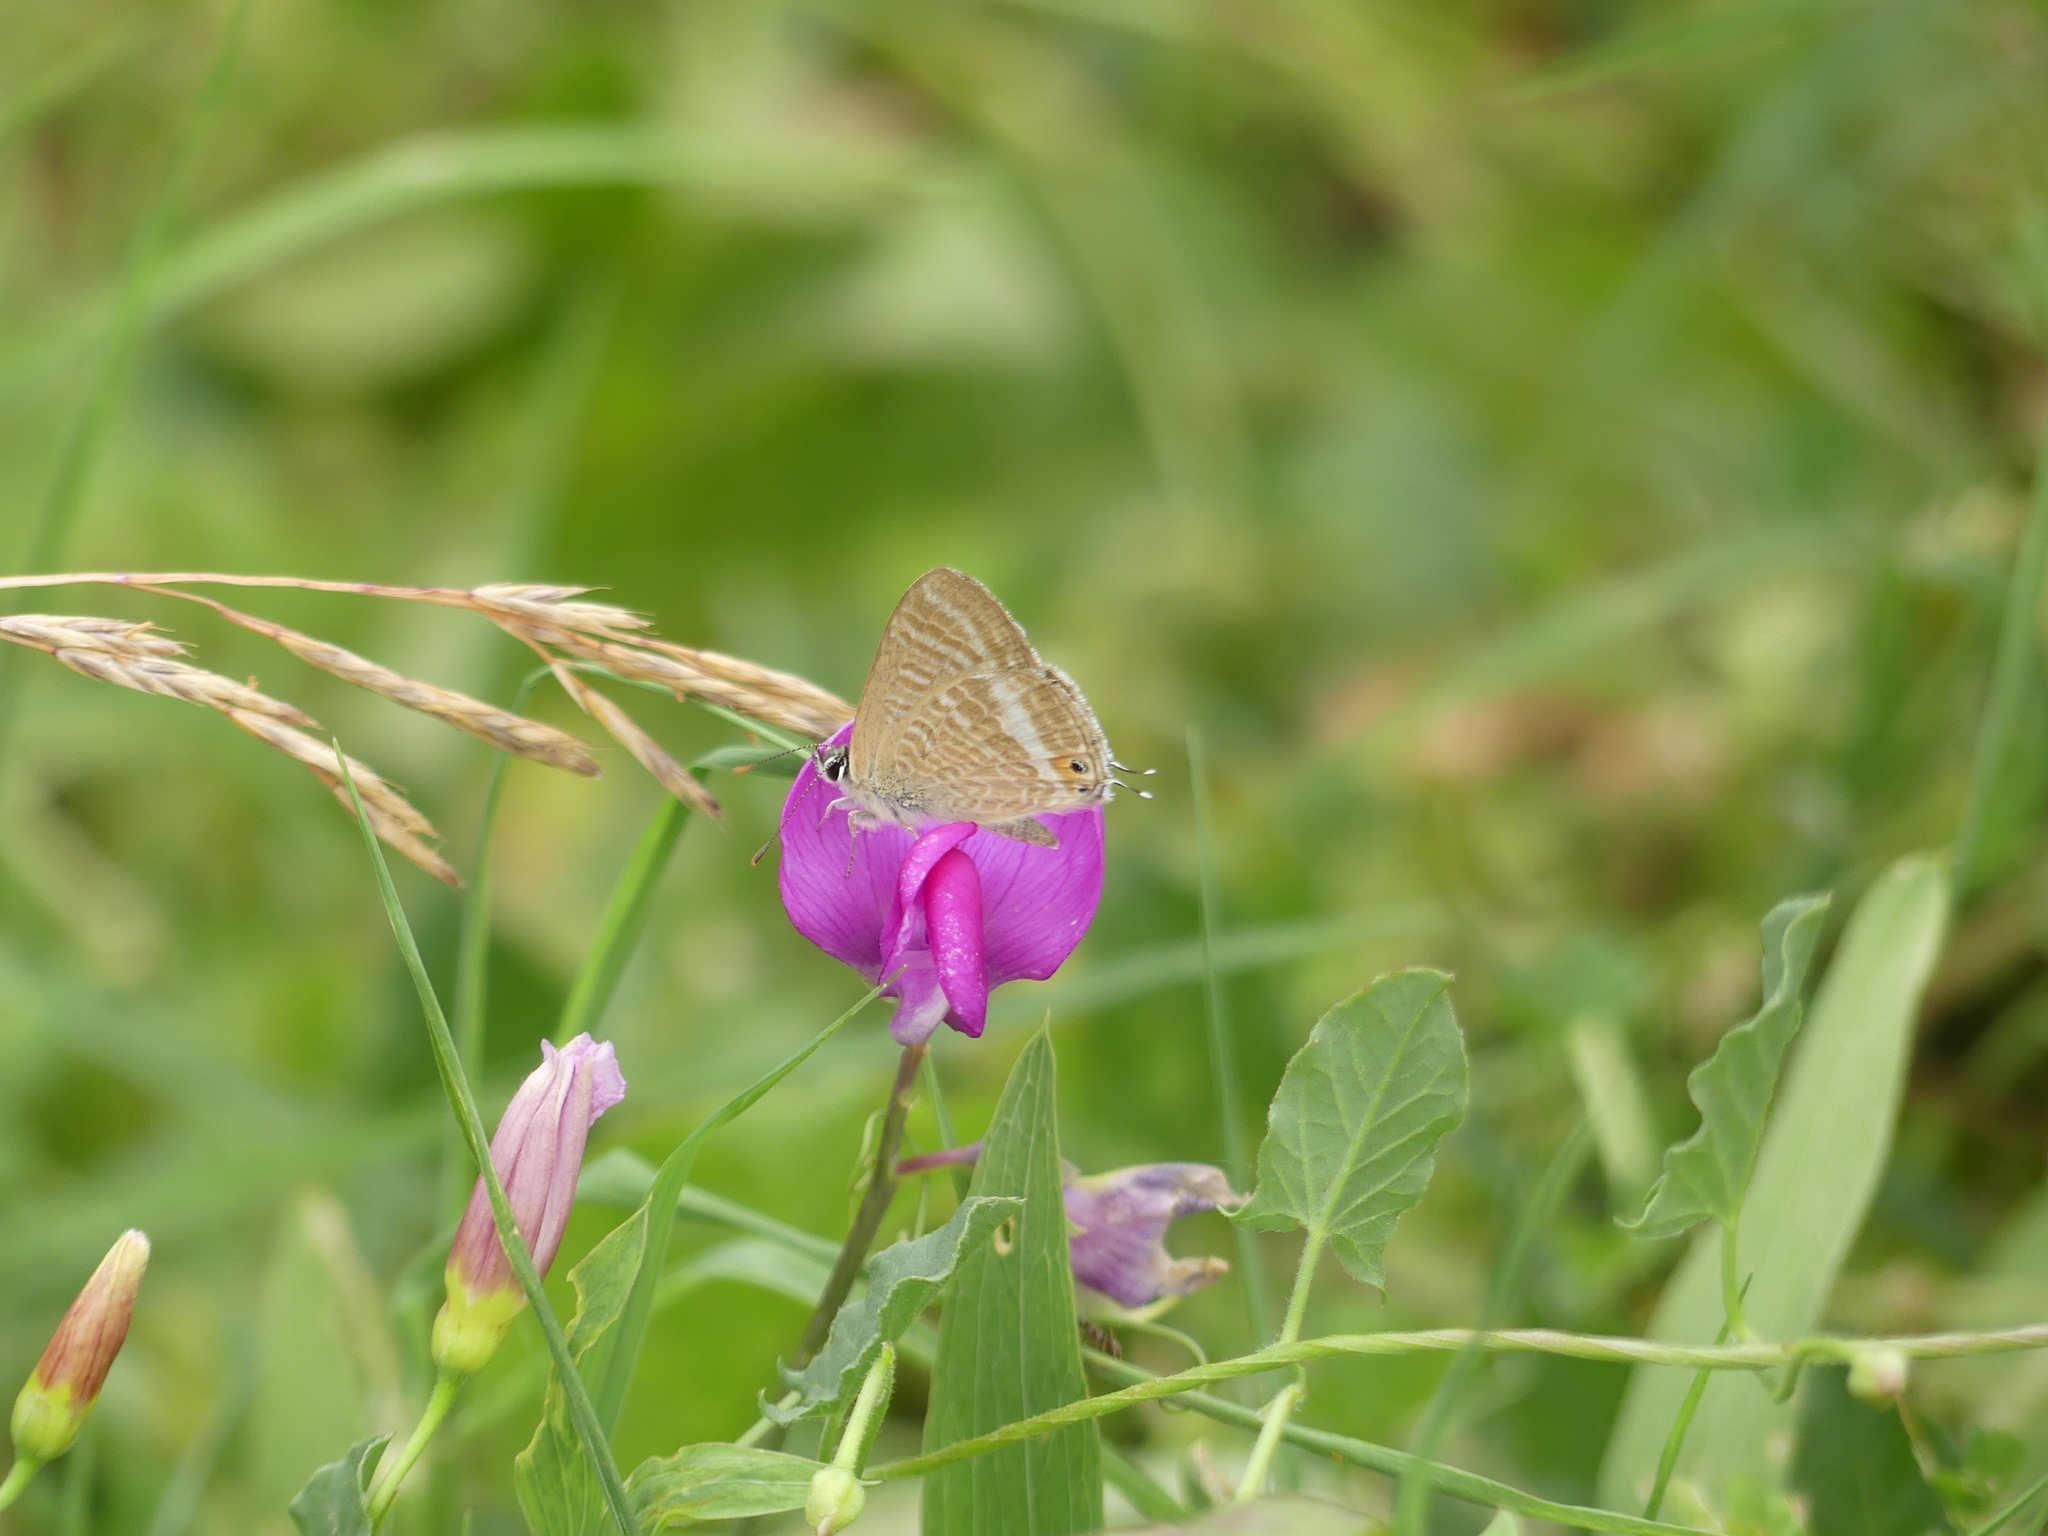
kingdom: Animalia
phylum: Arthropoda
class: Insecta
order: Lepidoptera
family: Lycaenidae
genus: Lampides
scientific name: Lampides boeticus
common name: Long-tailed blue
